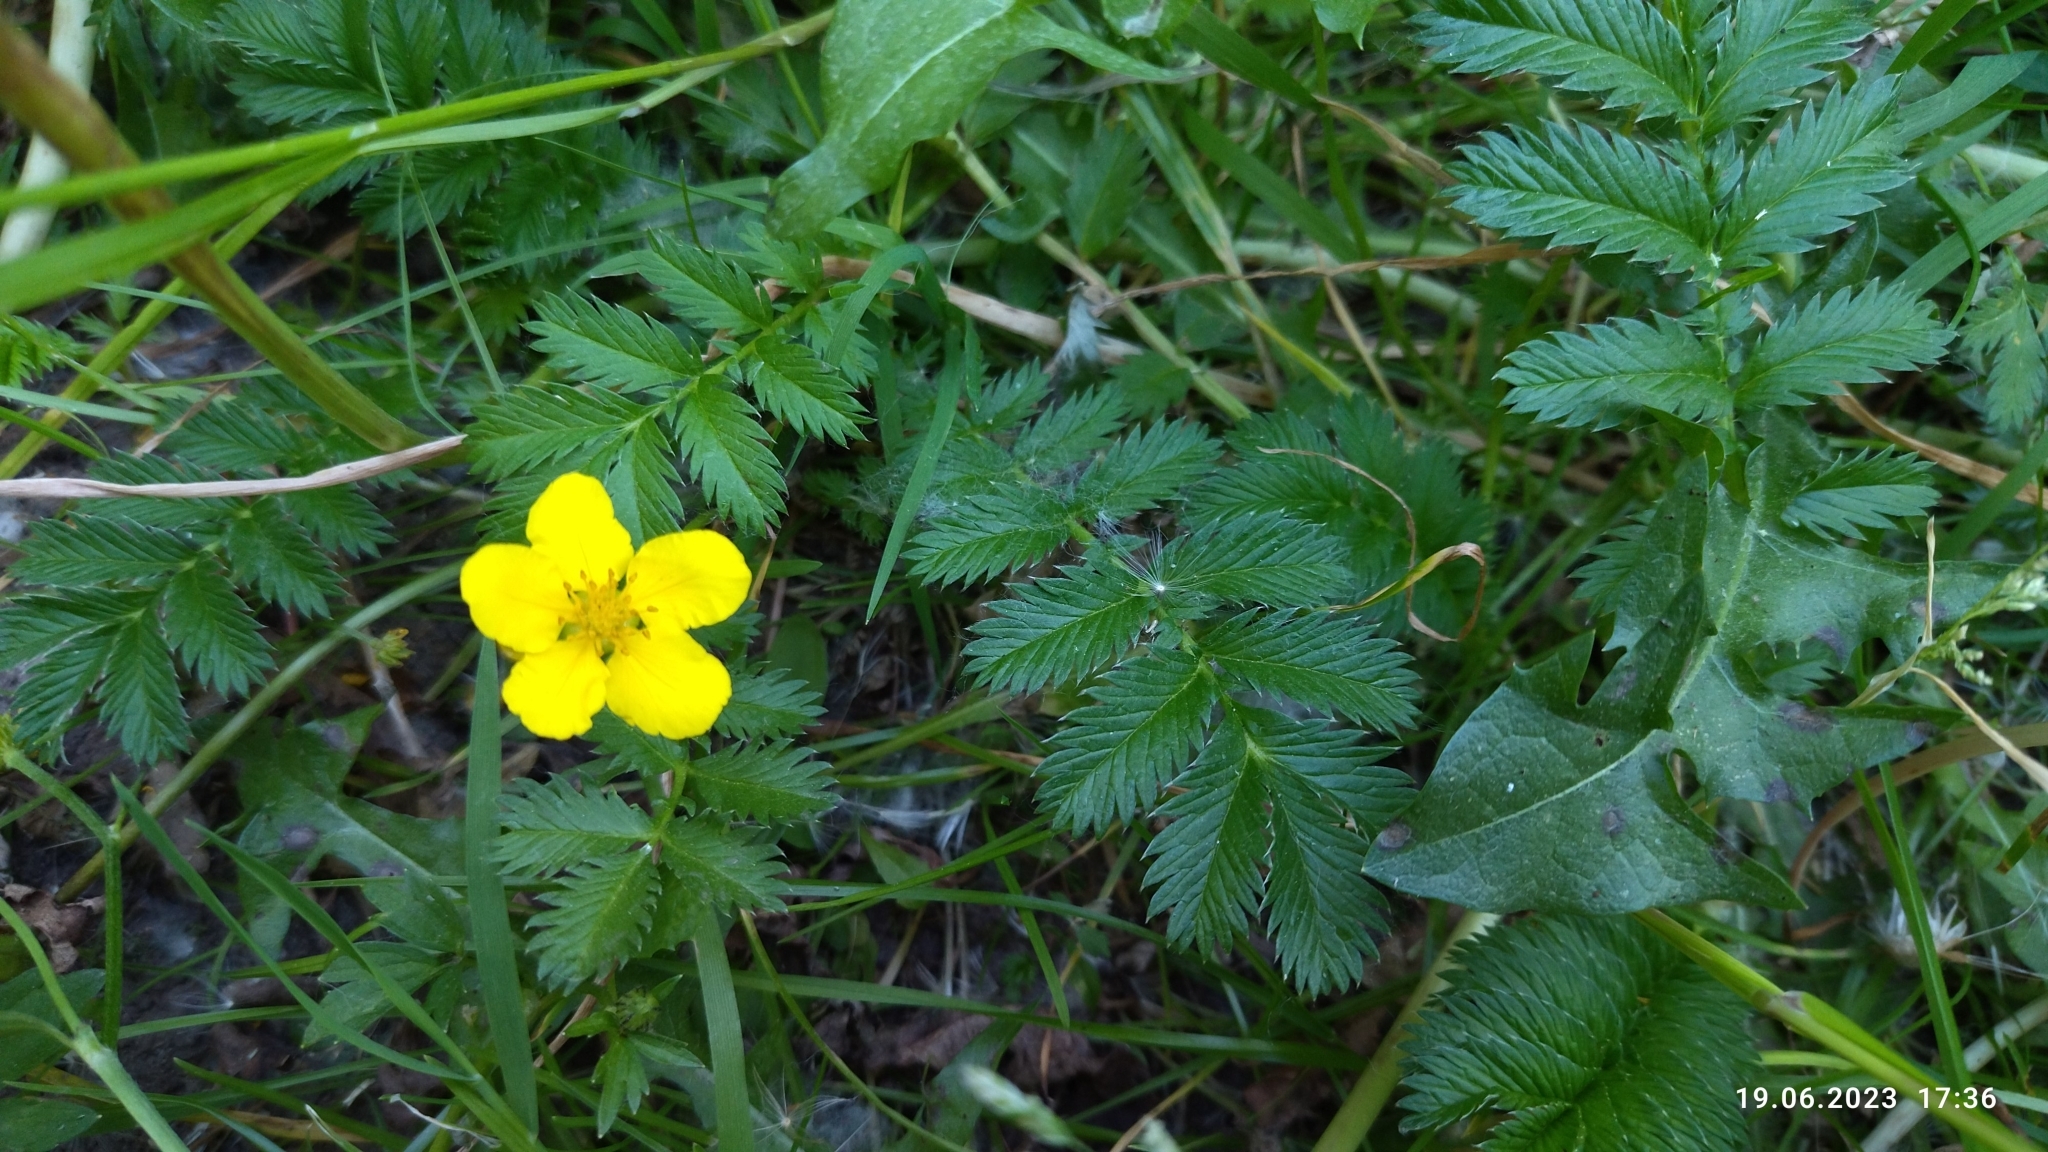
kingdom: Plantae
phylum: Tracheophyta
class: Magnoliopsida
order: Rosales
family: Rosaceae
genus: Argentina
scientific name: Argentina anserina
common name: Common silverweed
